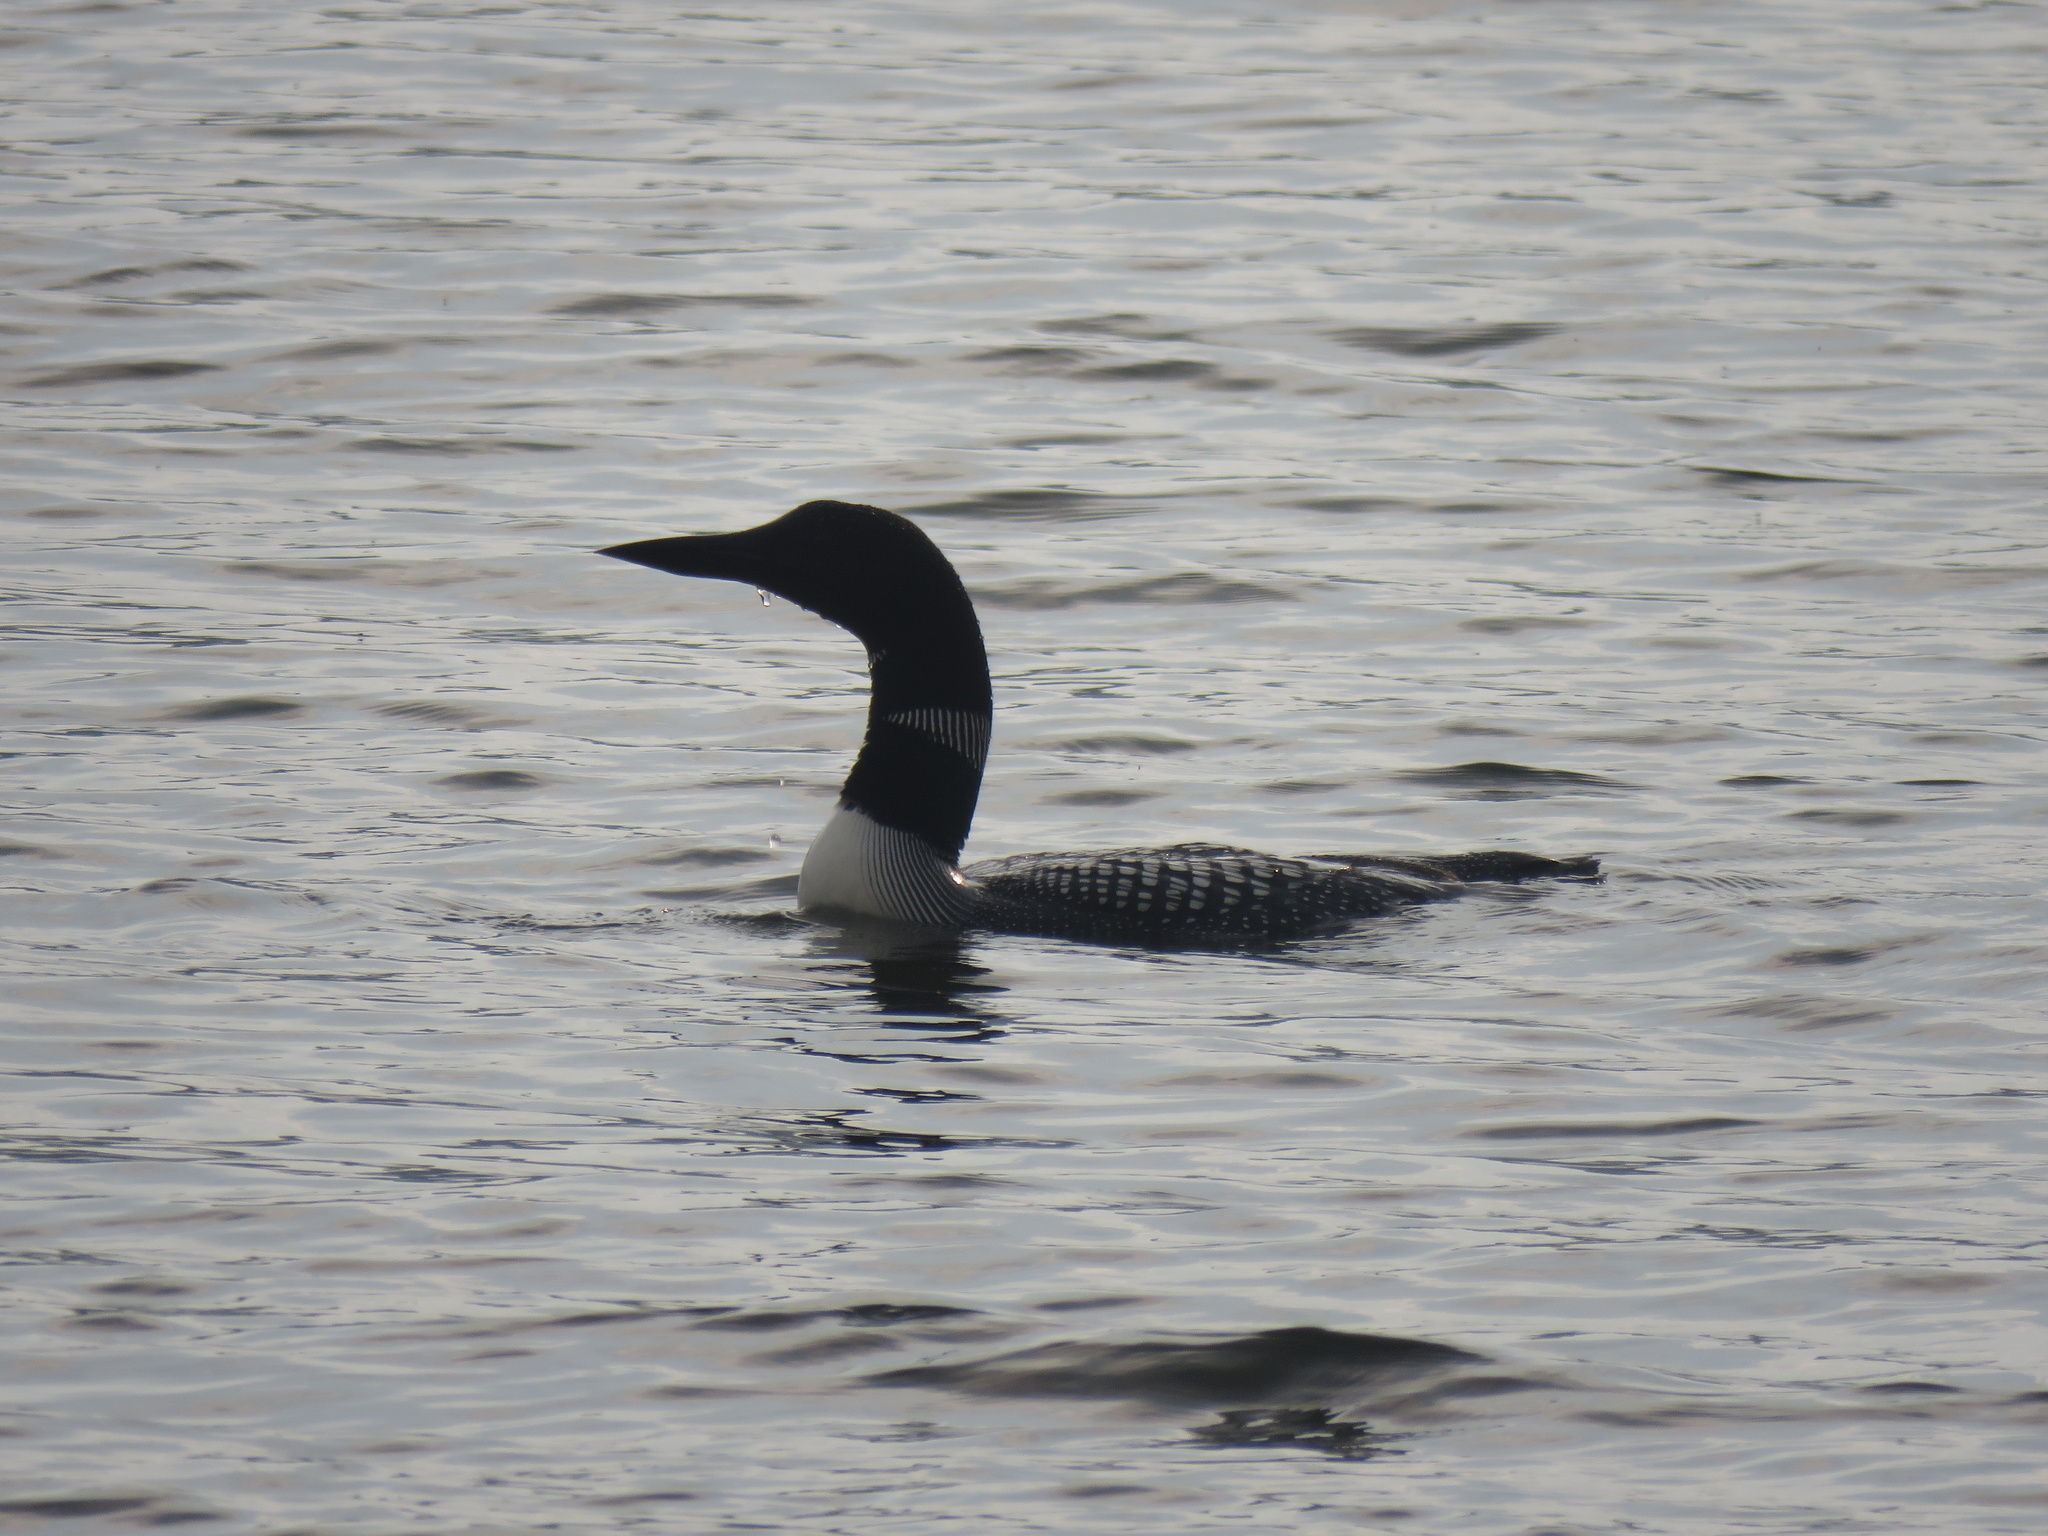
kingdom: Animalia
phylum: Chordata
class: Aves
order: Gaviiformes
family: Gaviidae
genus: Gavia
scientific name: Gavia immer
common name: Common loon
